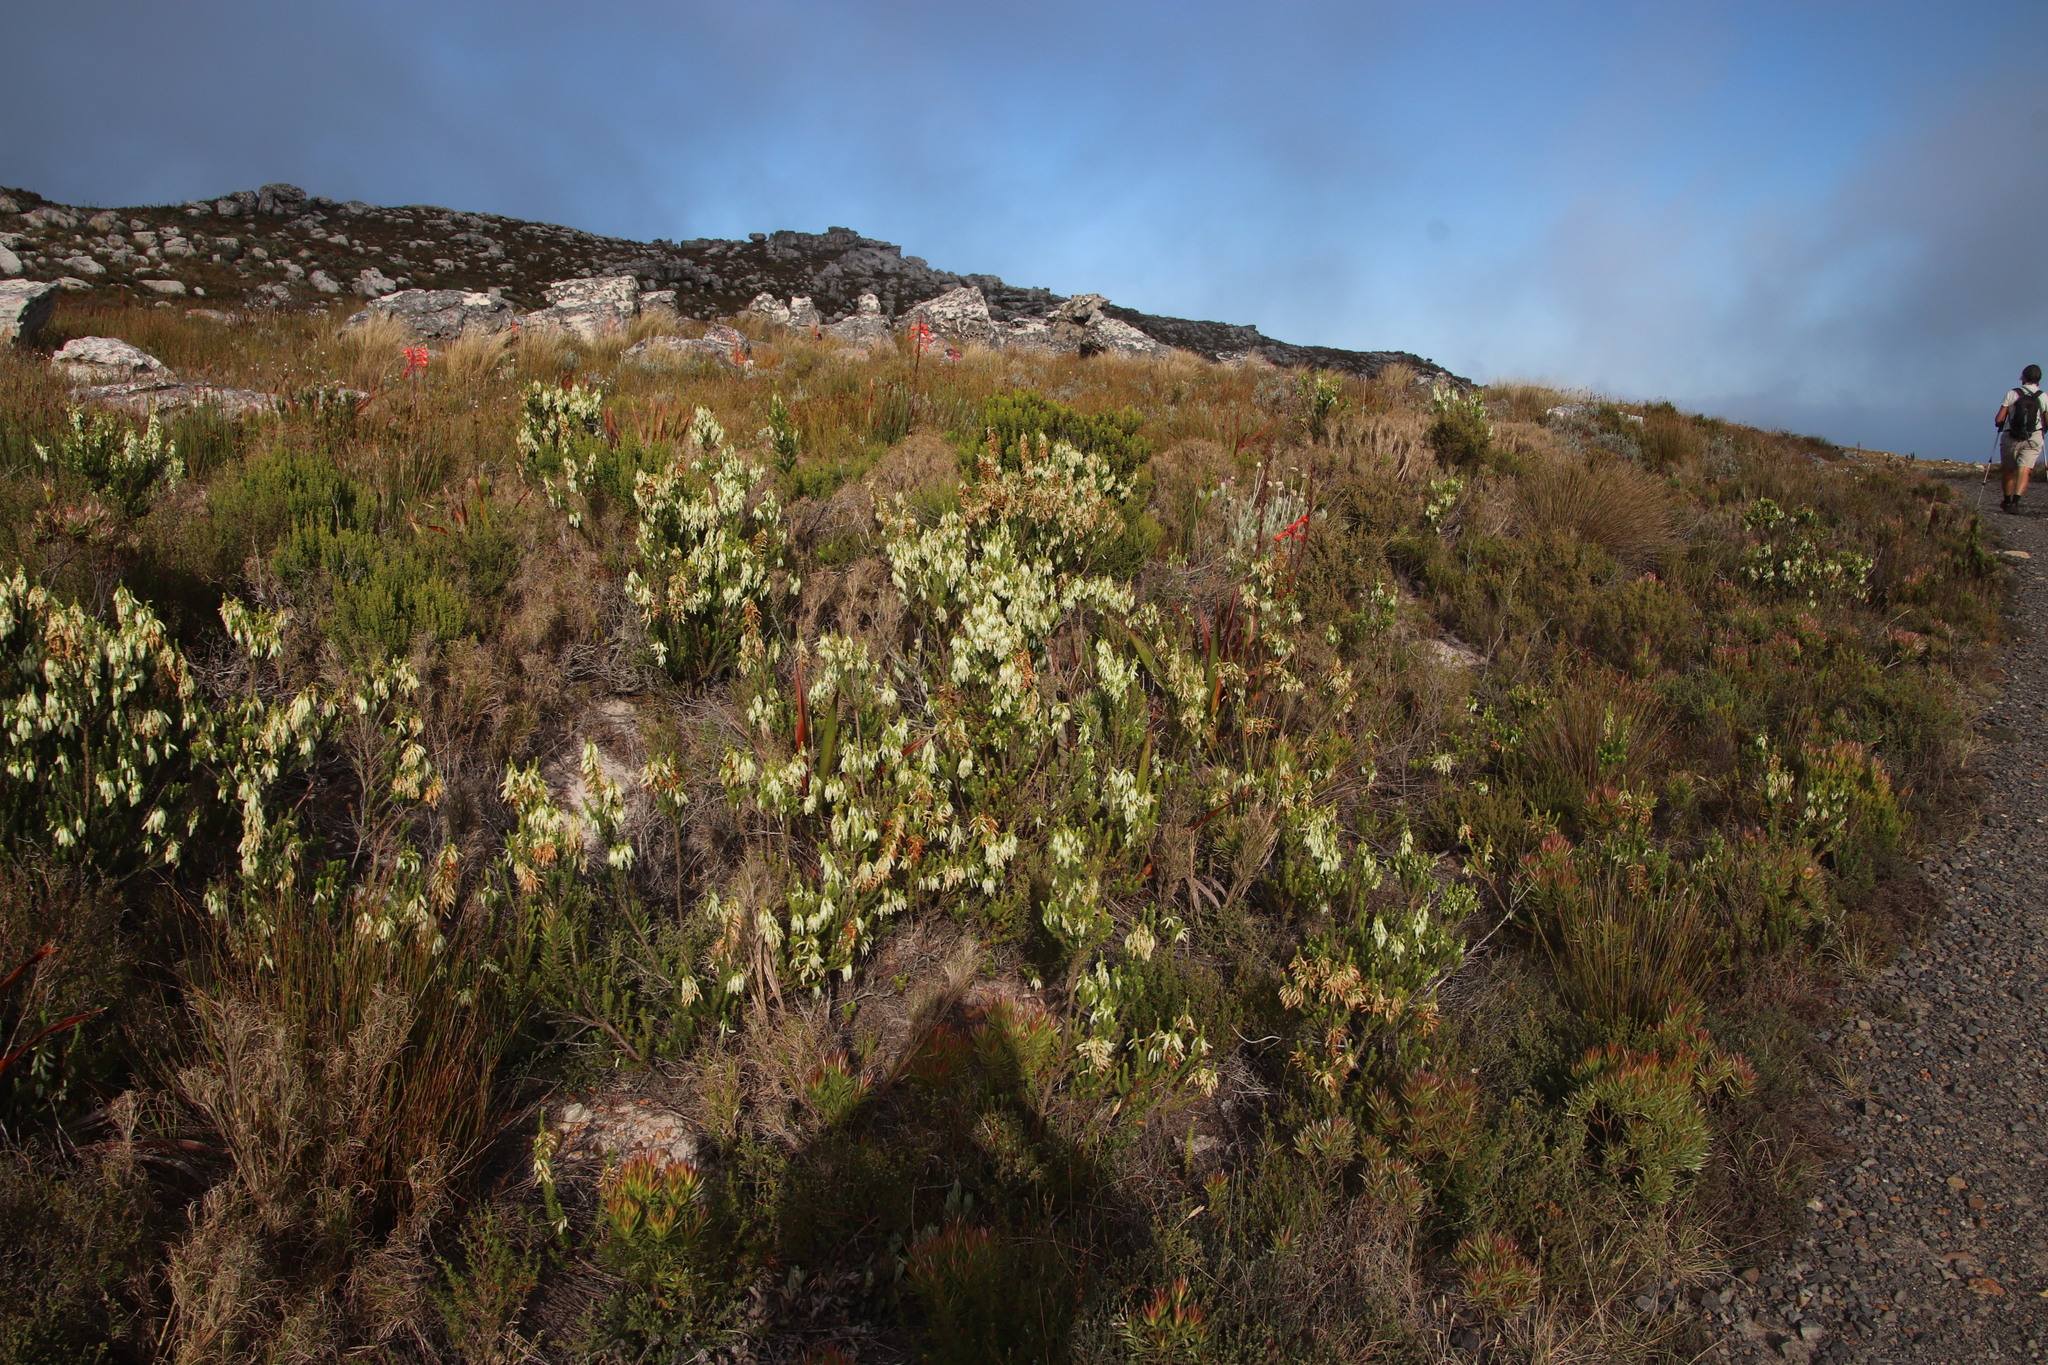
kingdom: Plantae
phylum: Tracheophyta
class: Magnoliopsida
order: Ericales
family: Ericaceae
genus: Erica
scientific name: Erica mammosa
